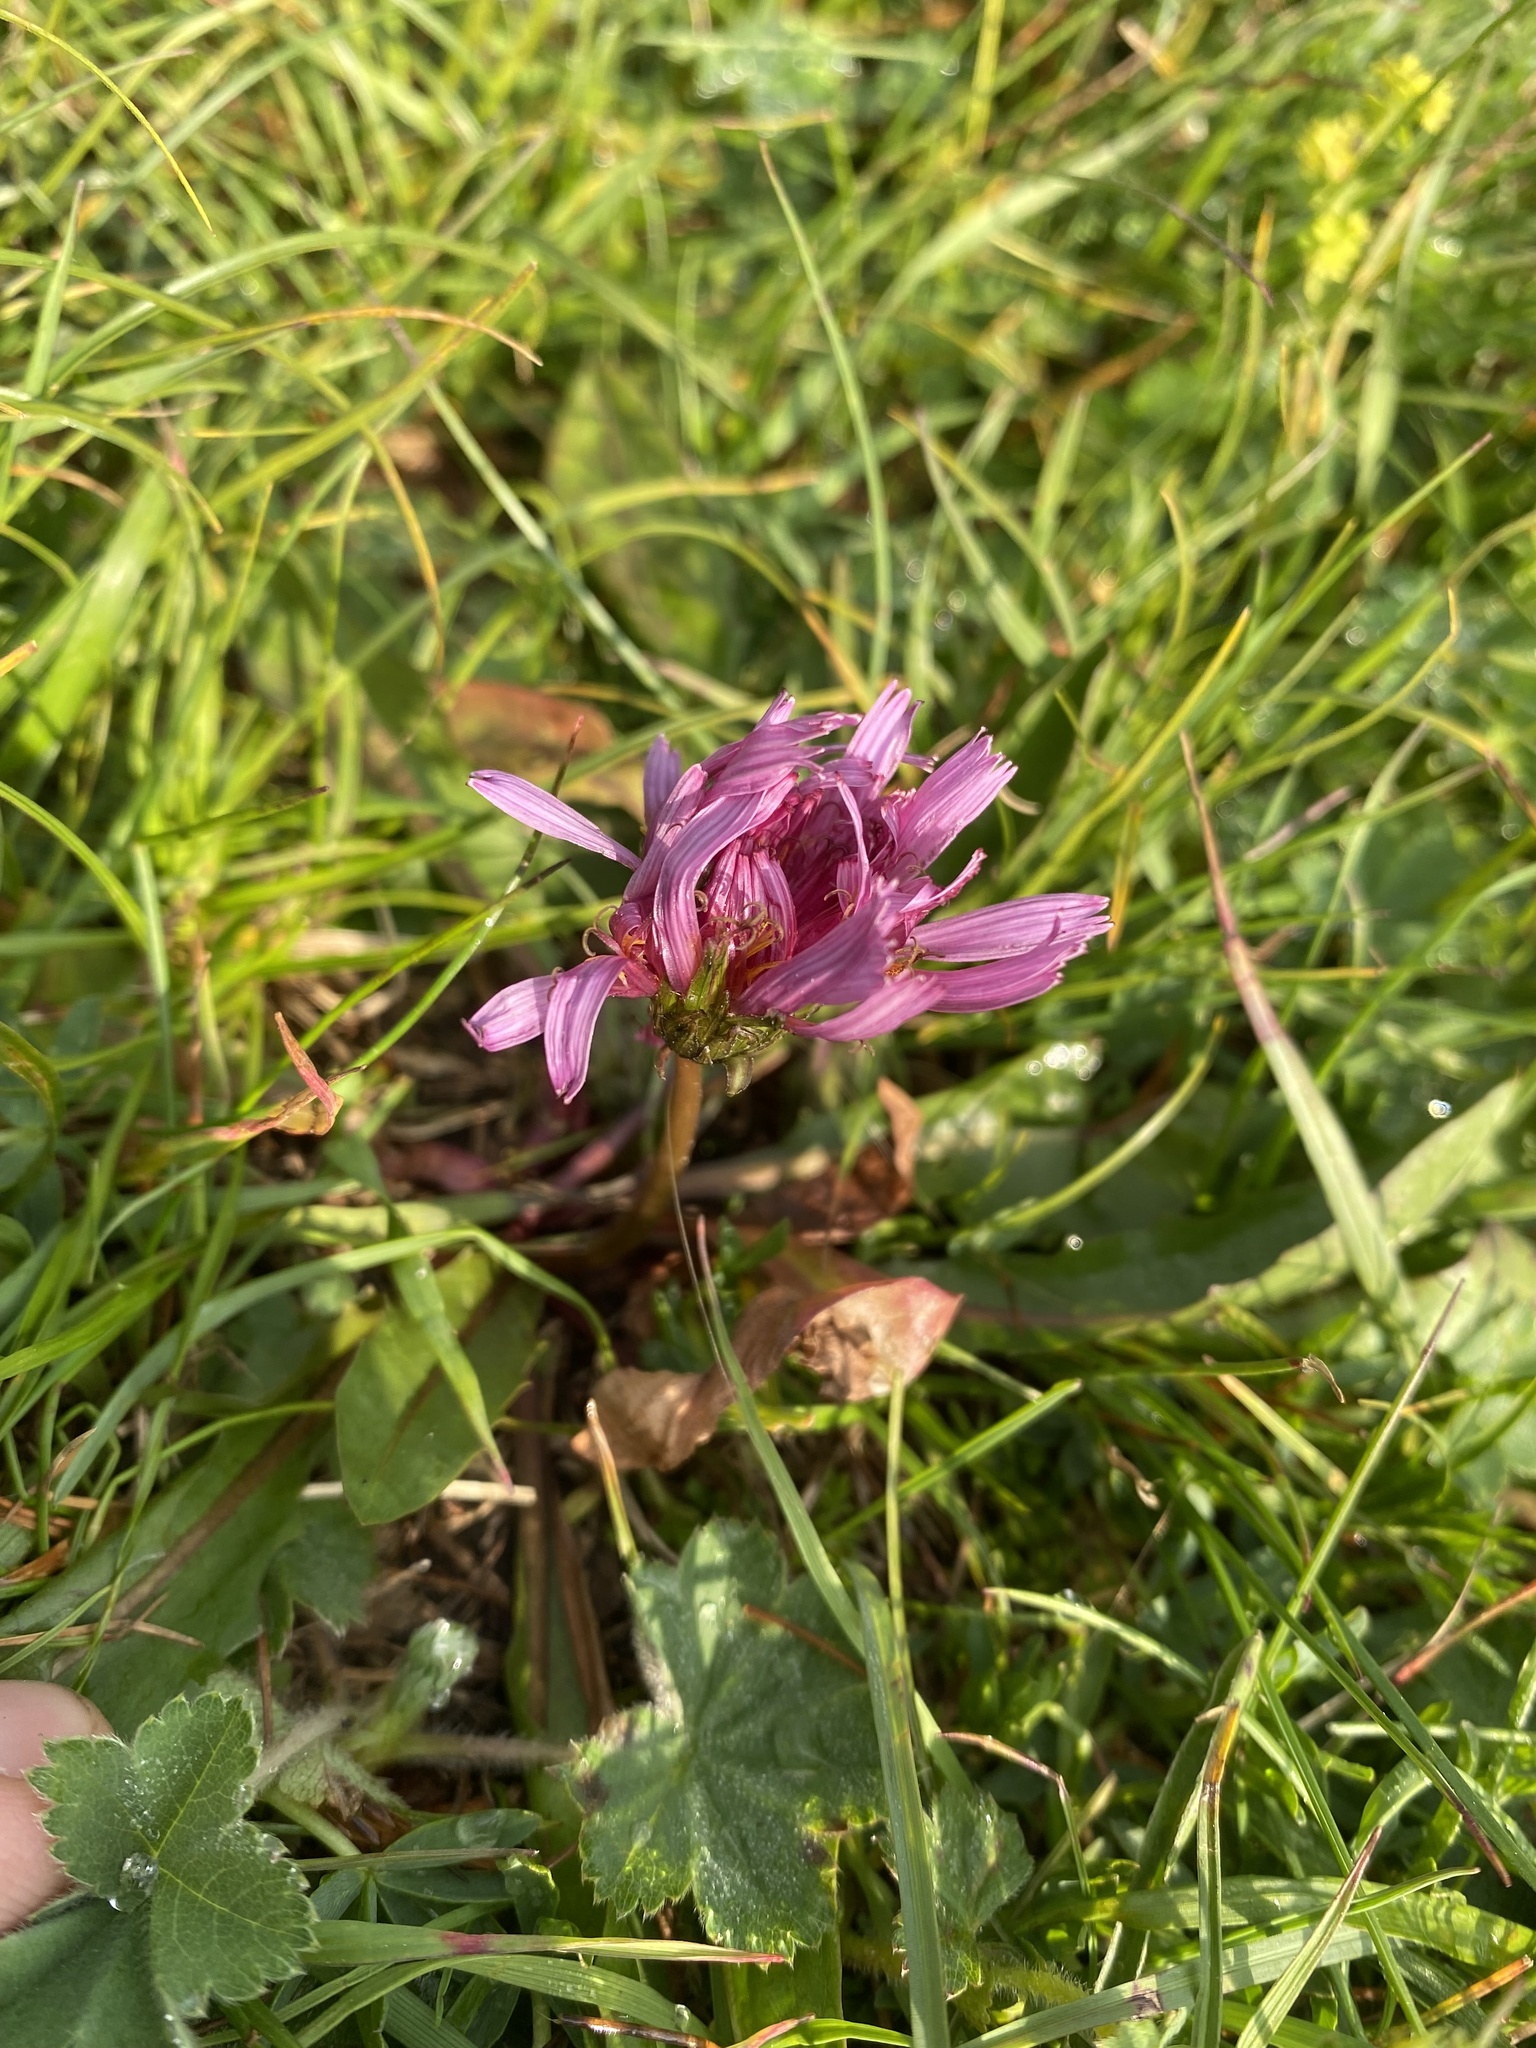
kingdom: Plantae
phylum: Tracheophyta
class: Magnoliopsida
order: Asterales
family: Asteraceae
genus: Taraxacum
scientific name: Taraxacum porphyranthum
